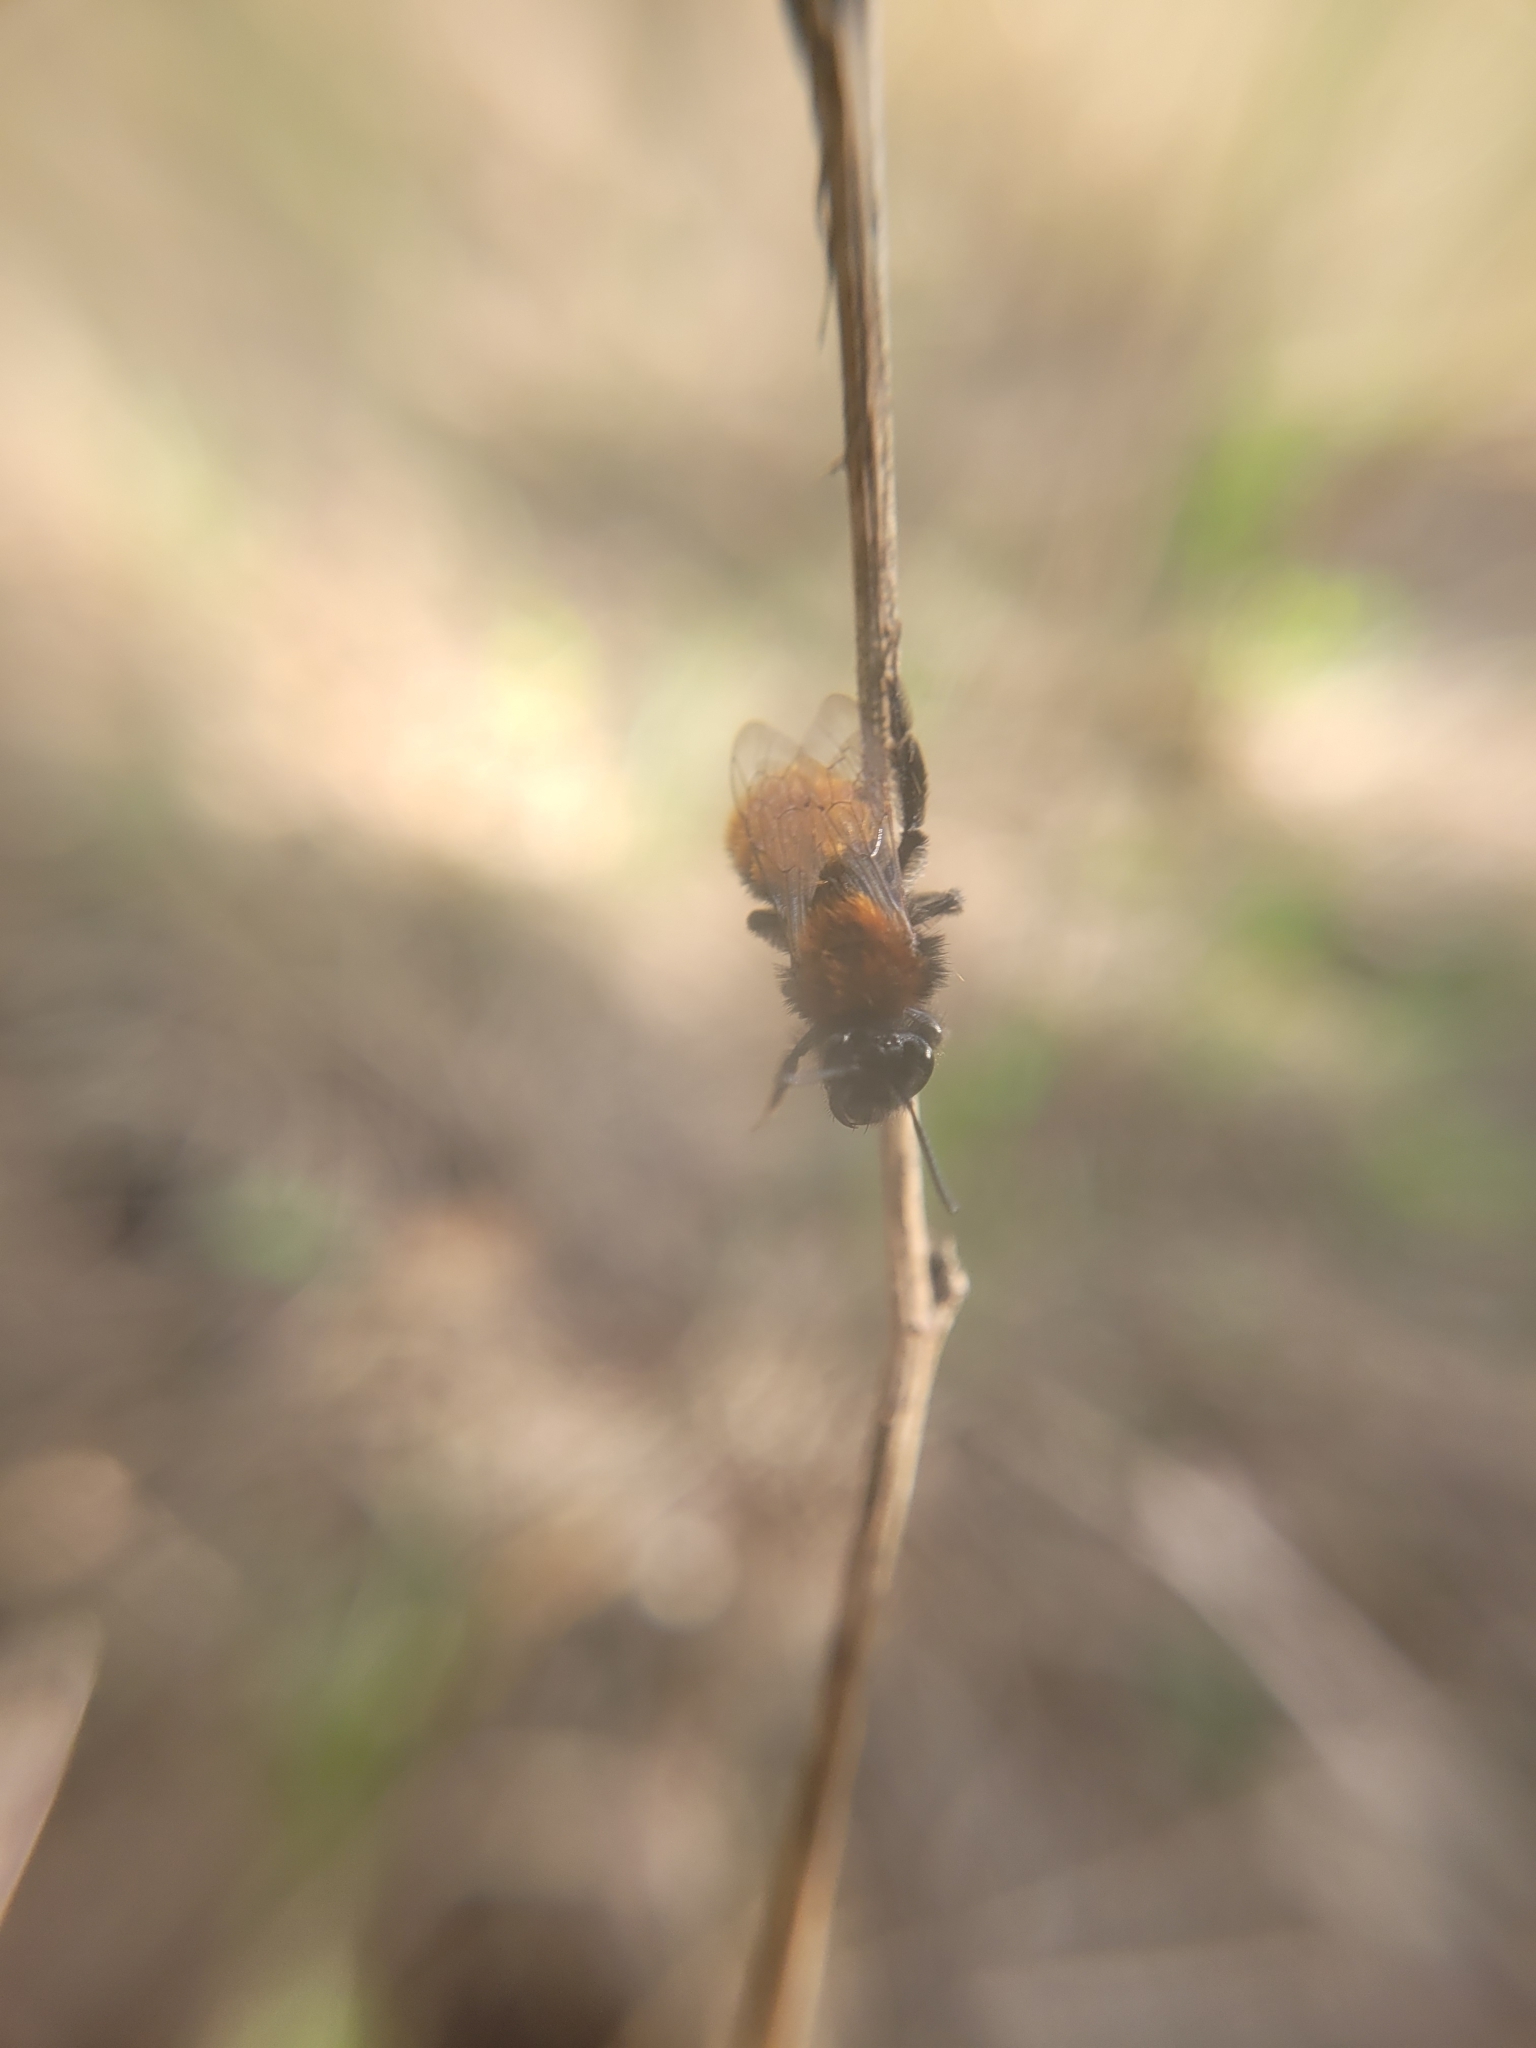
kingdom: Animalia
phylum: Arthropoda
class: Insecta
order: Hymenoptera
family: Andrenidae
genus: Andrena
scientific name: Andrena fulva
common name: Tawny mining bee
